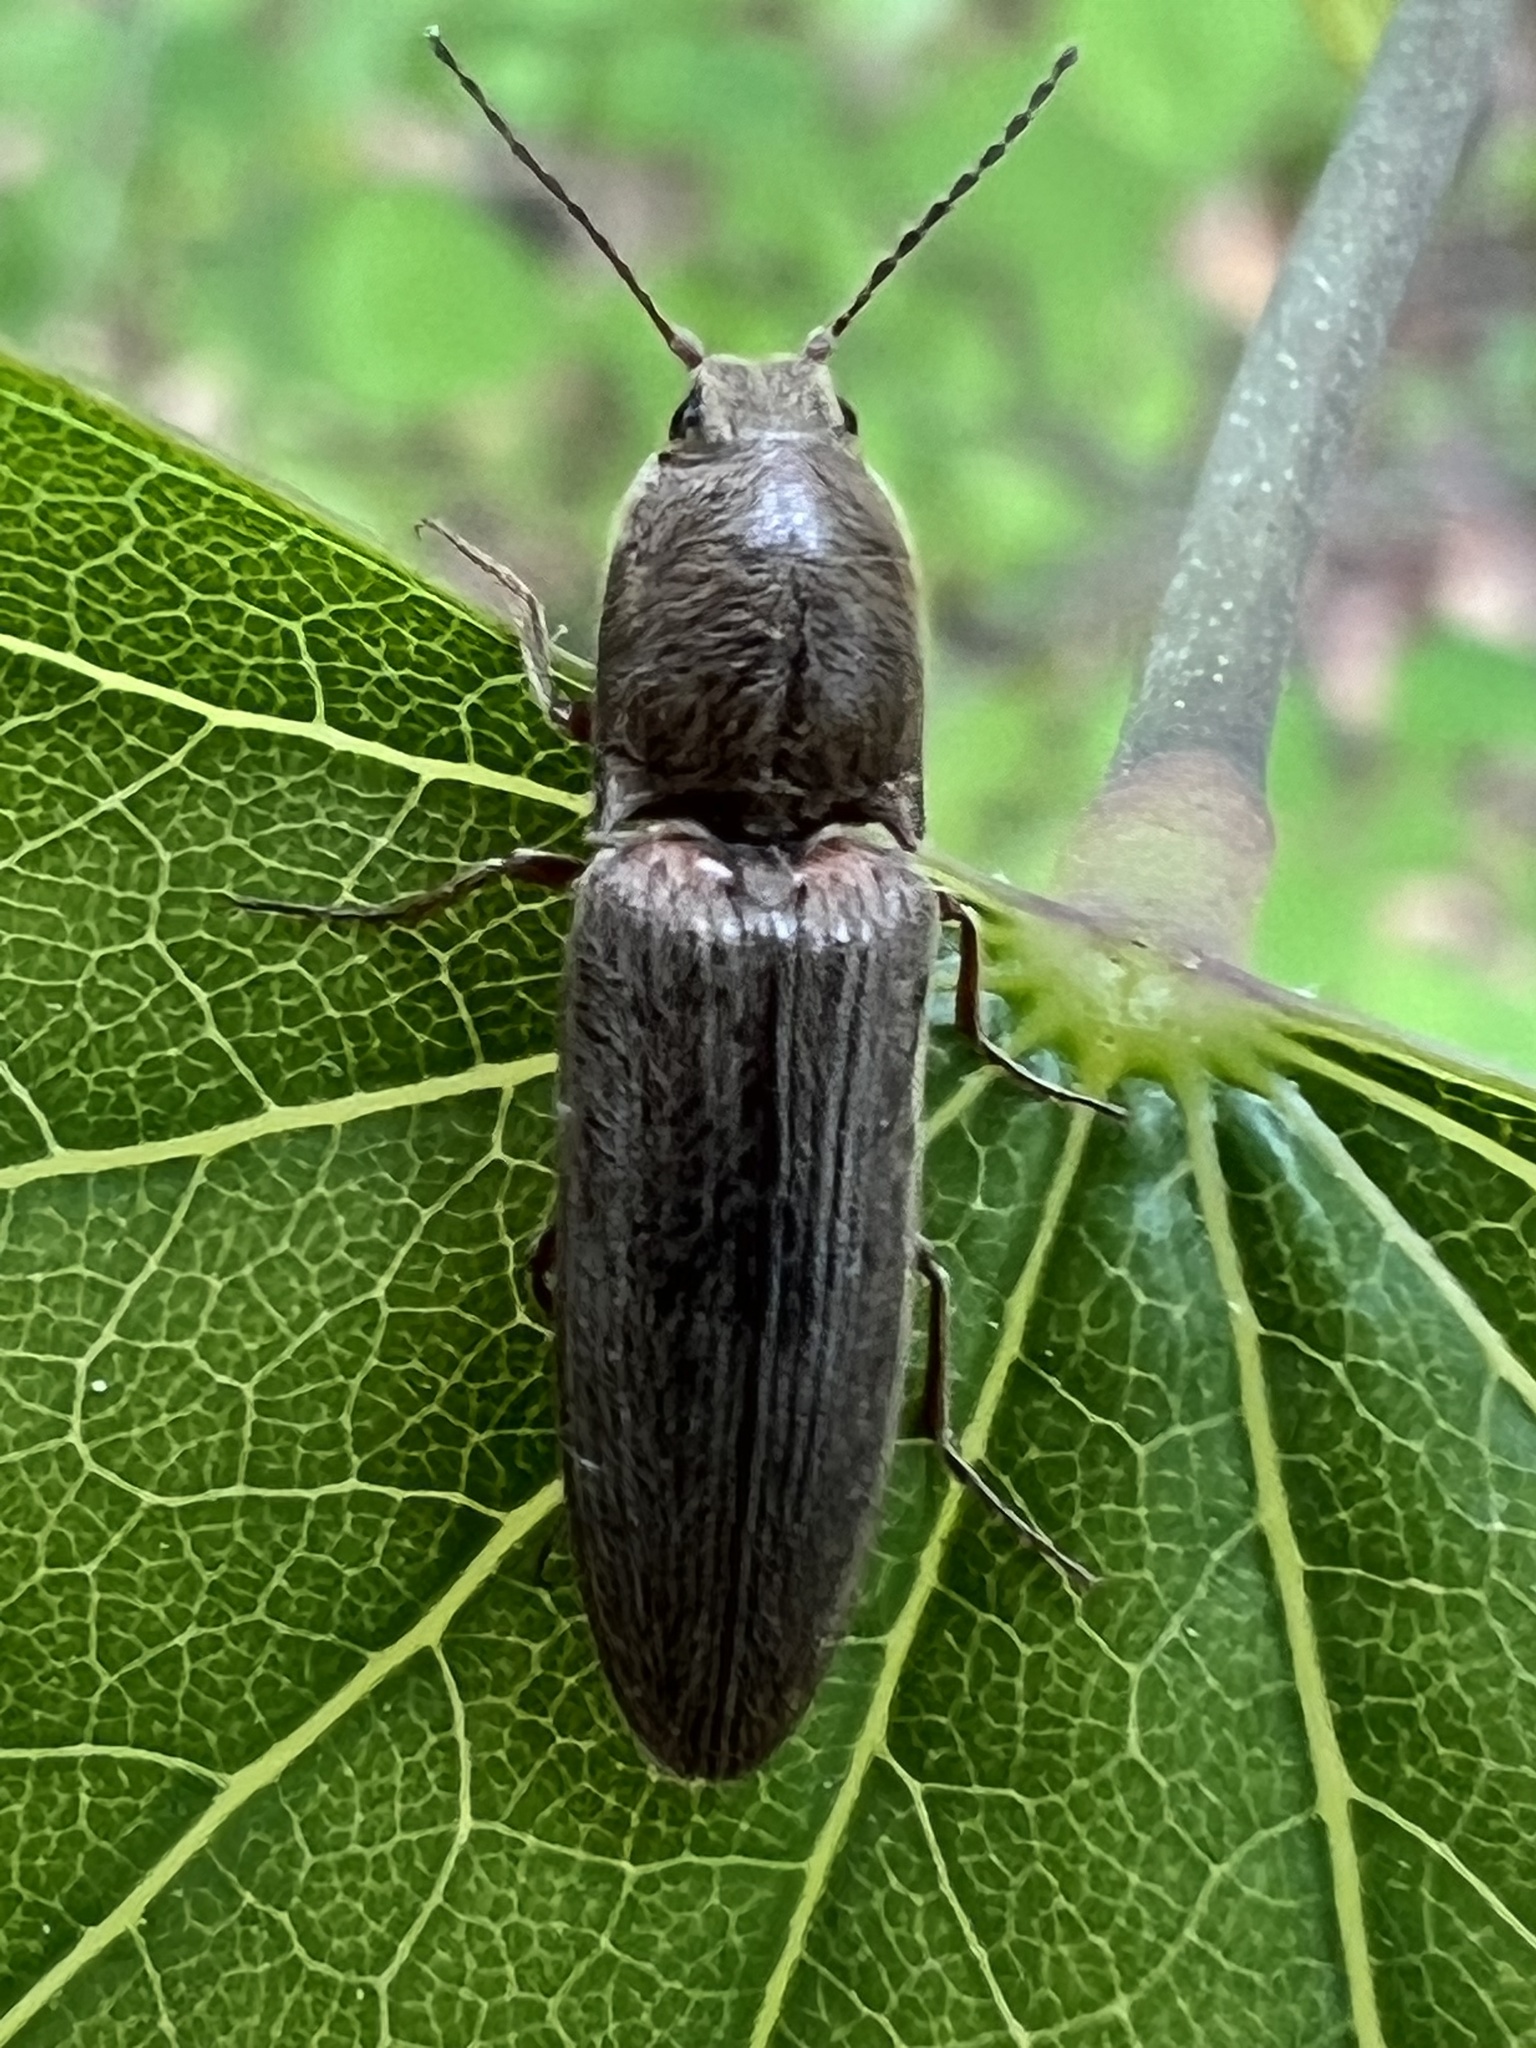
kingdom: Animalia
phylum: Arthropoda
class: Insecta
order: Coleoptera
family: Elateridae
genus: Gambrinus
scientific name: Gambrinus griseus
